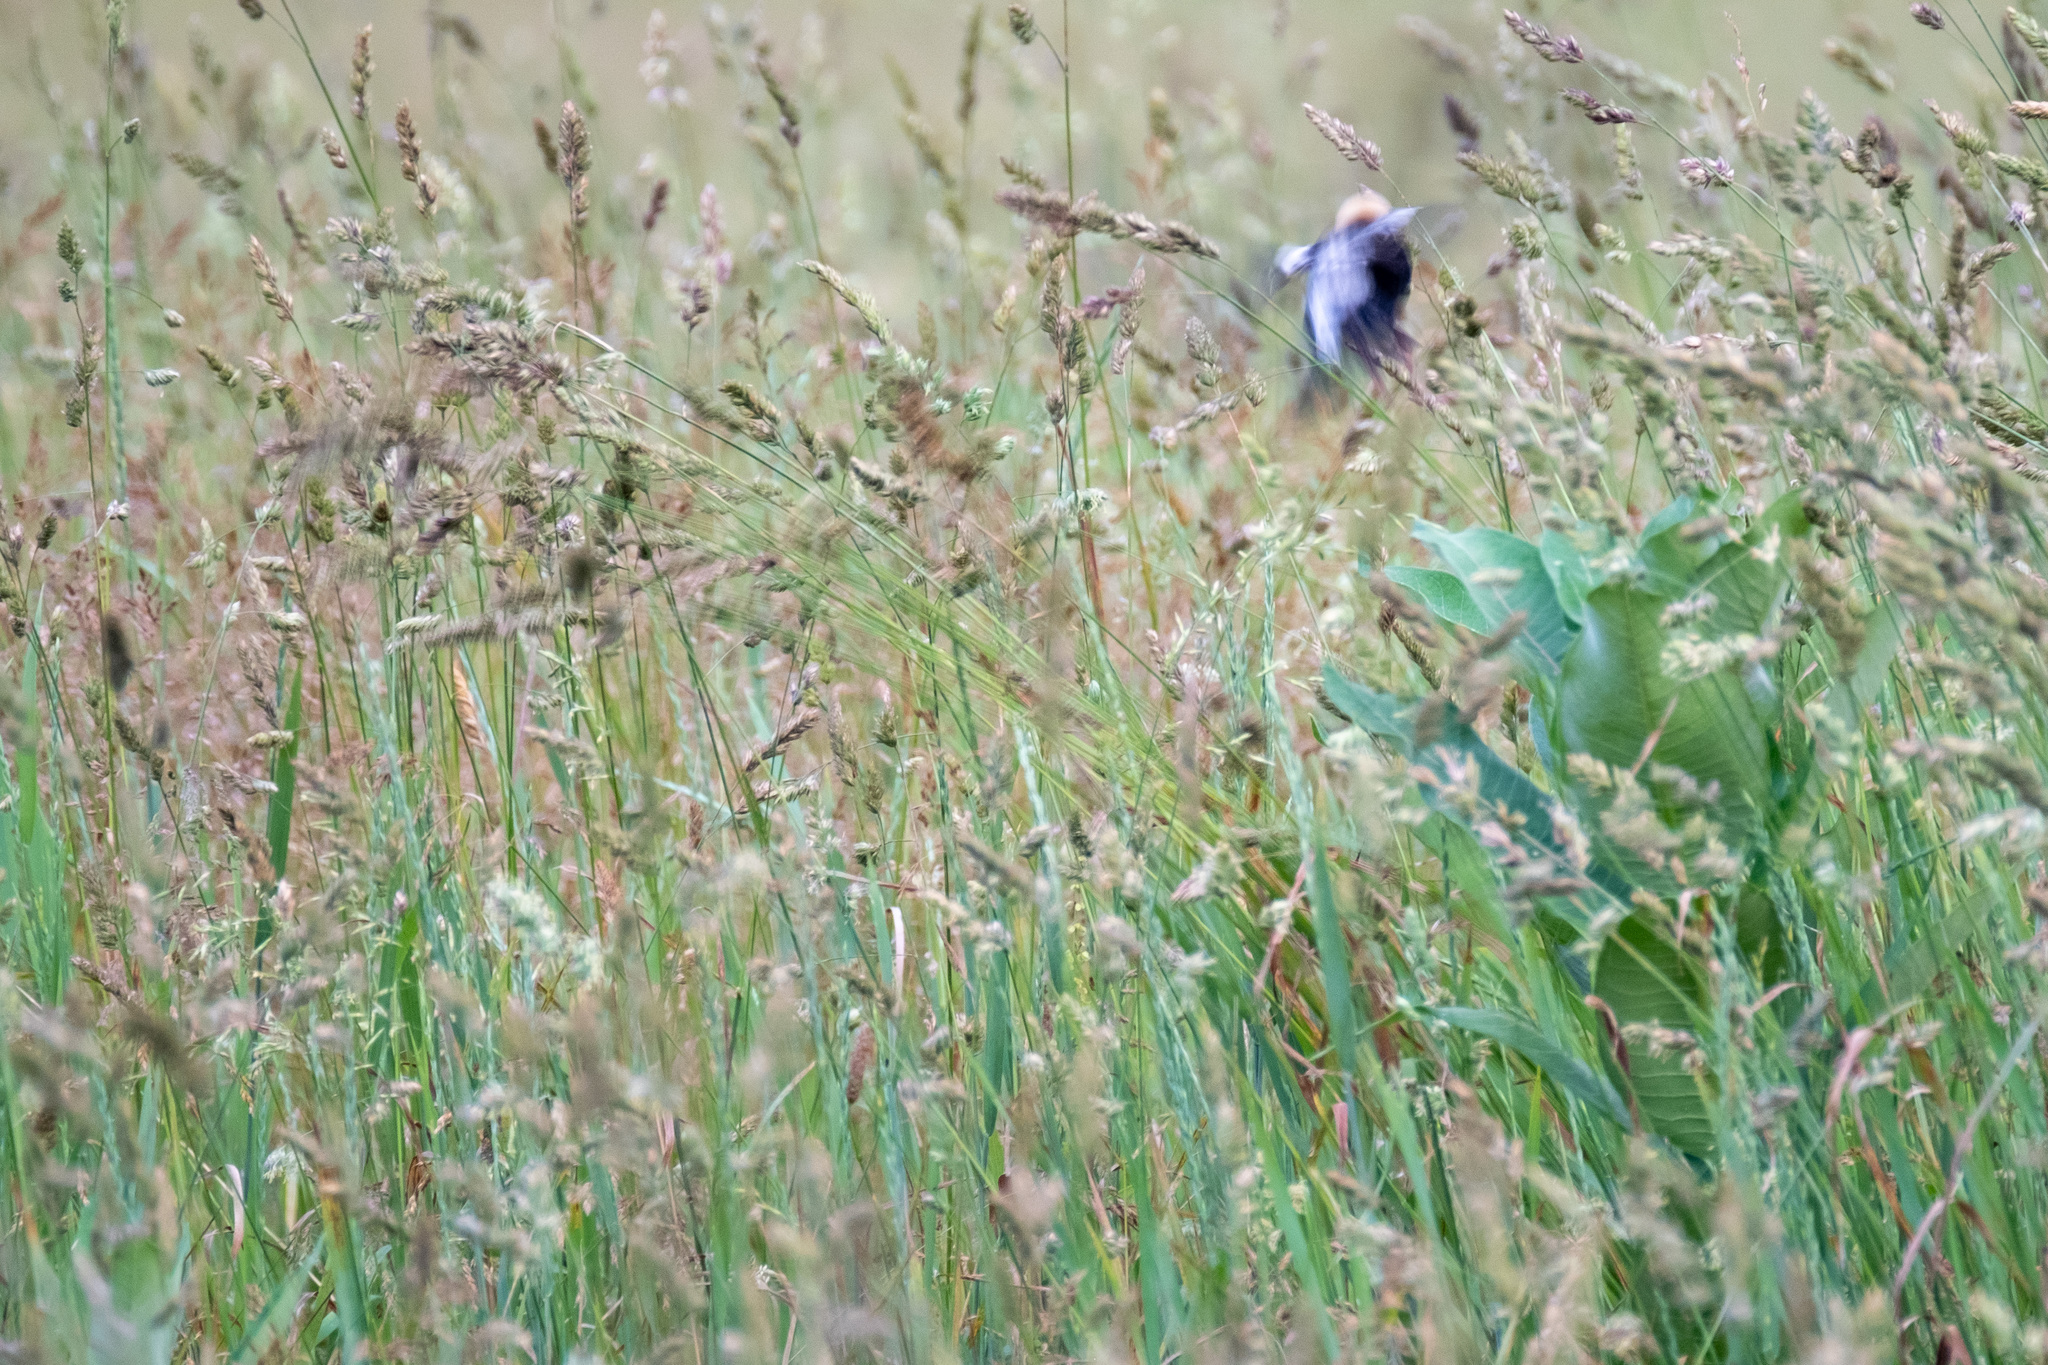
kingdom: Animalia
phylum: Chordata
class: Aves
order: Passeriformes
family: Icteridae
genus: Dolichonyx
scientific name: Dolichonyx oryzivorus
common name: Bobolink
